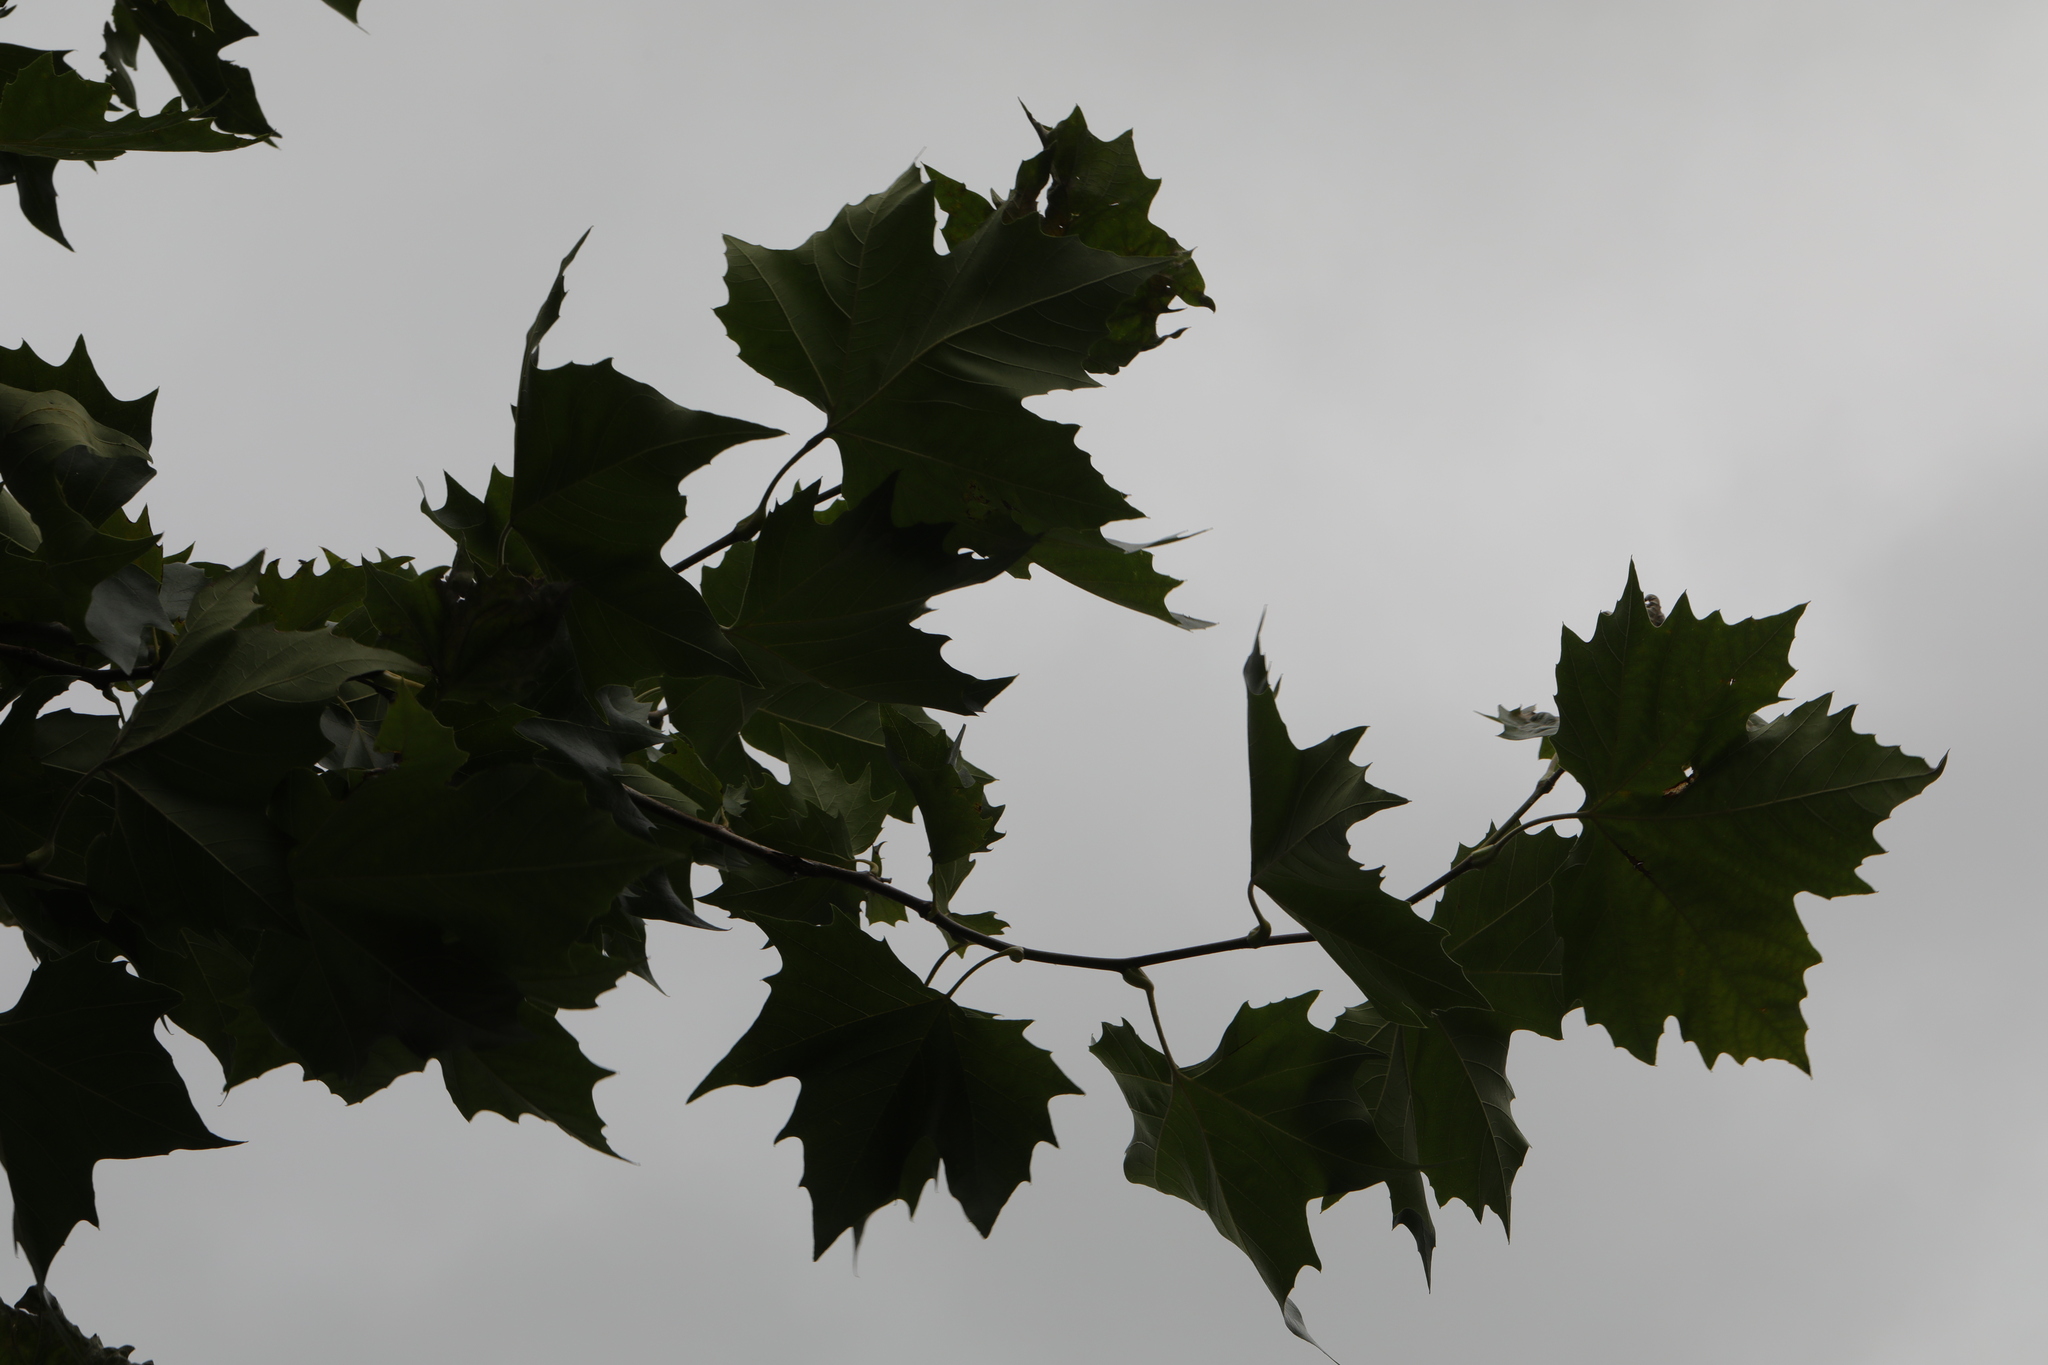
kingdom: Plantae
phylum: Tracheophyta
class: Magnoliopsida
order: Proteales
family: Platanaceae
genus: Platanus
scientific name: Platanus hispanica
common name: London plane
